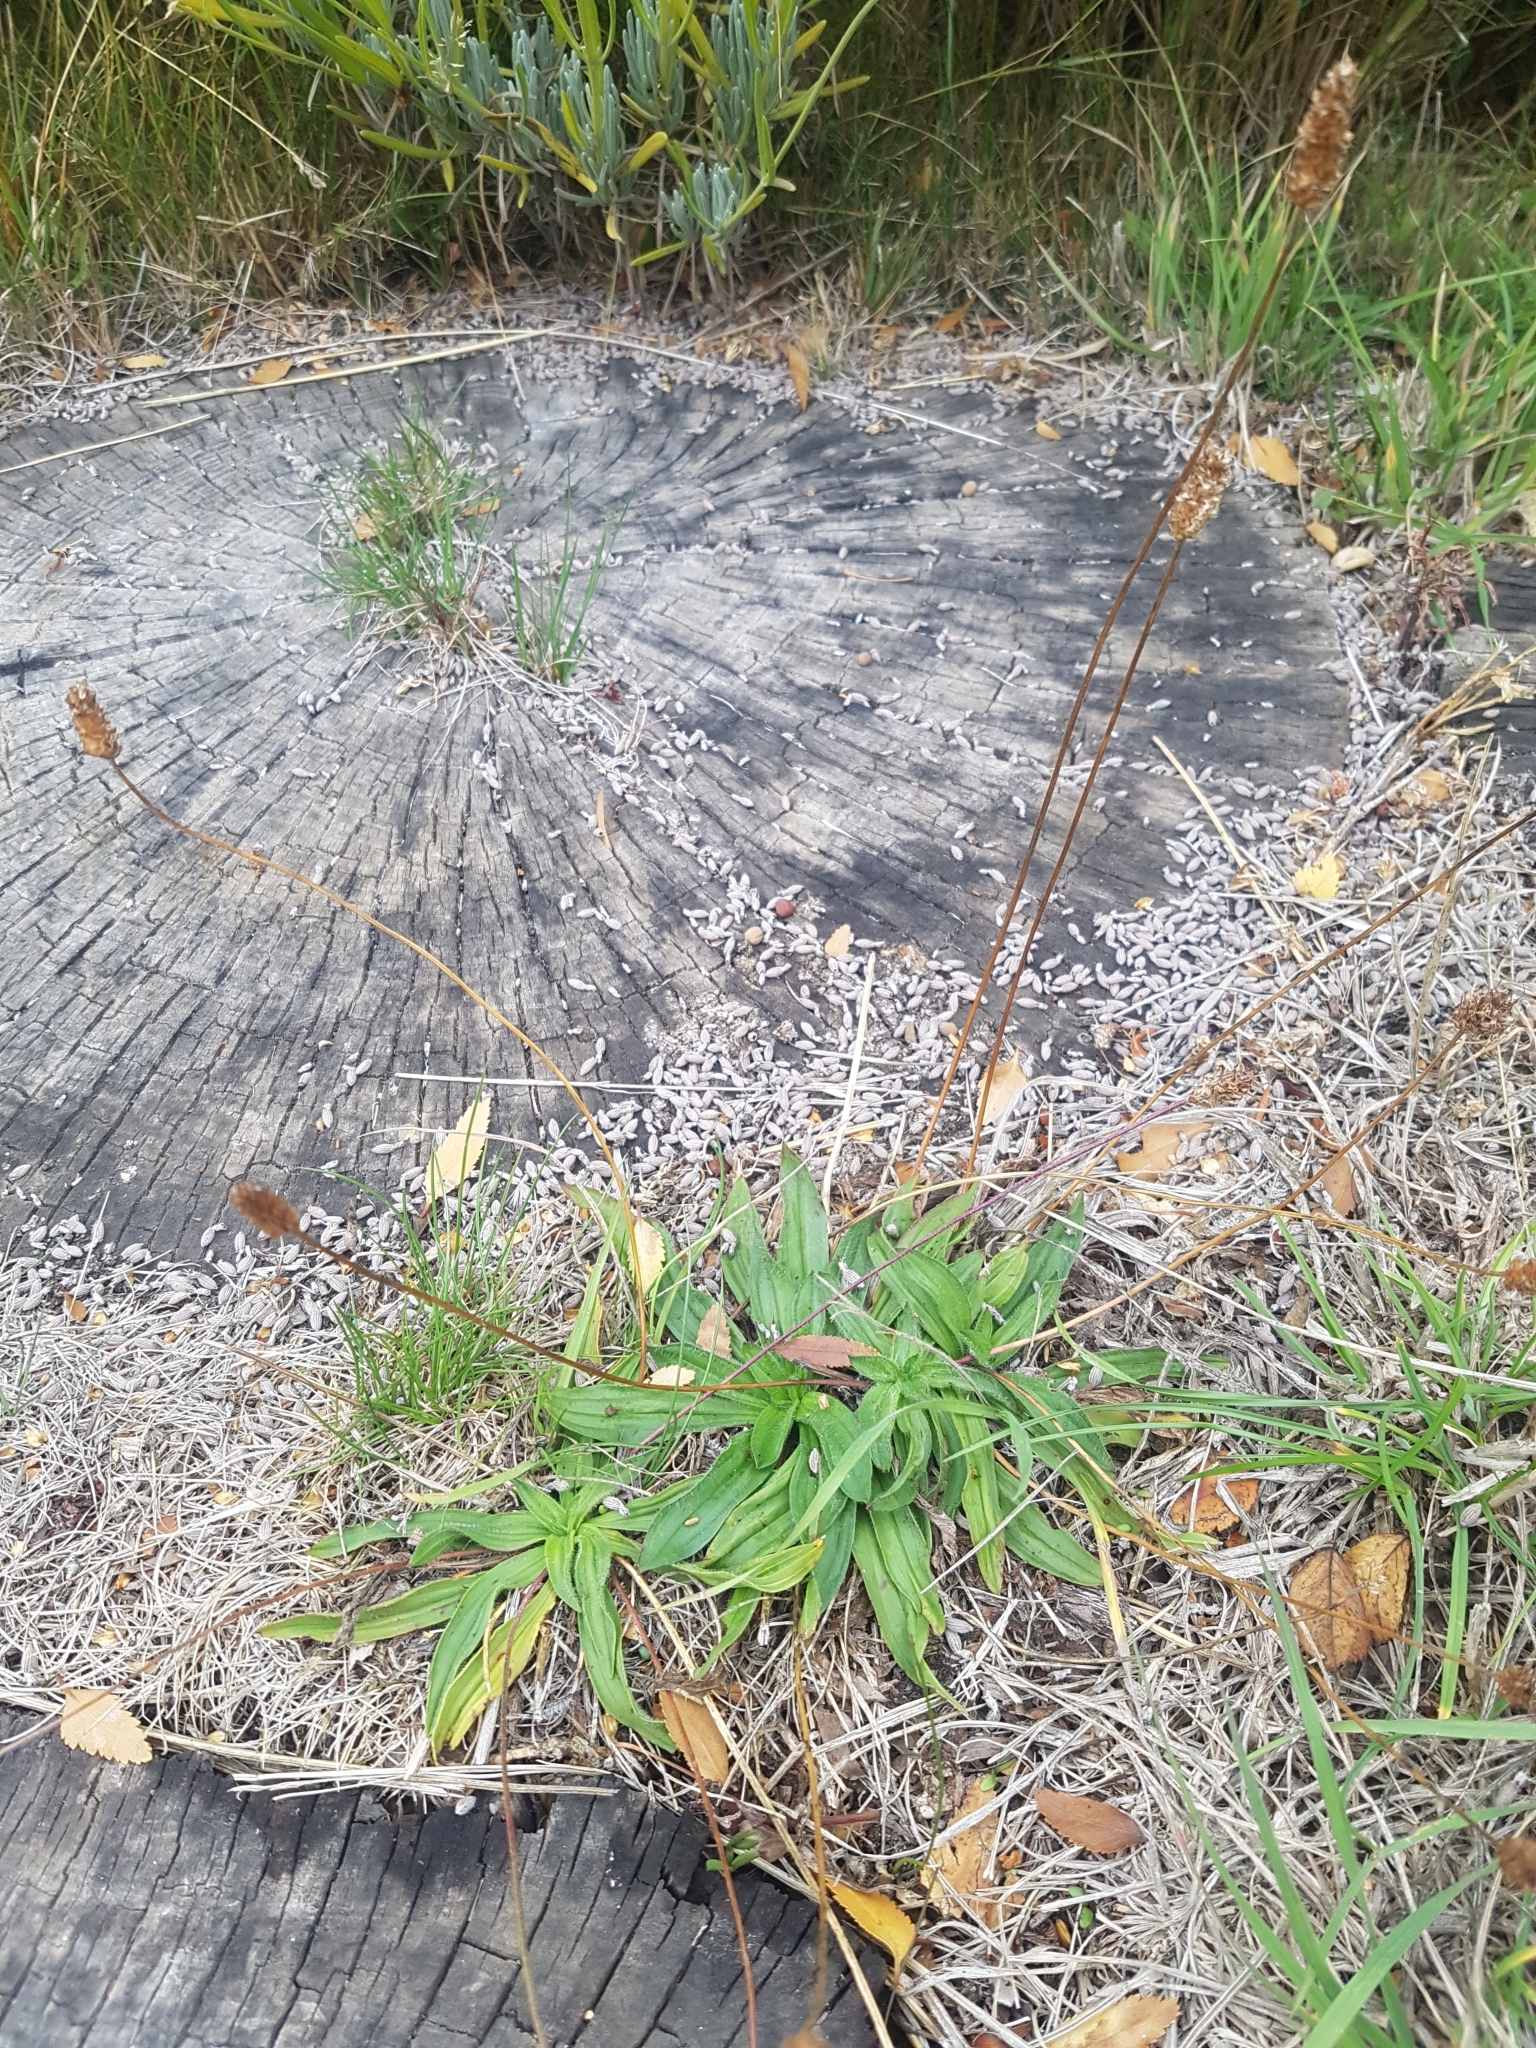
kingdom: Plantae
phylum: Tracheophyta
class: Magnoliopsida
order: Lamiales
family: Plantaginaceae
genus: Plantago
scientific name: Plantago lanceolata
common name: Ribwort plantain
